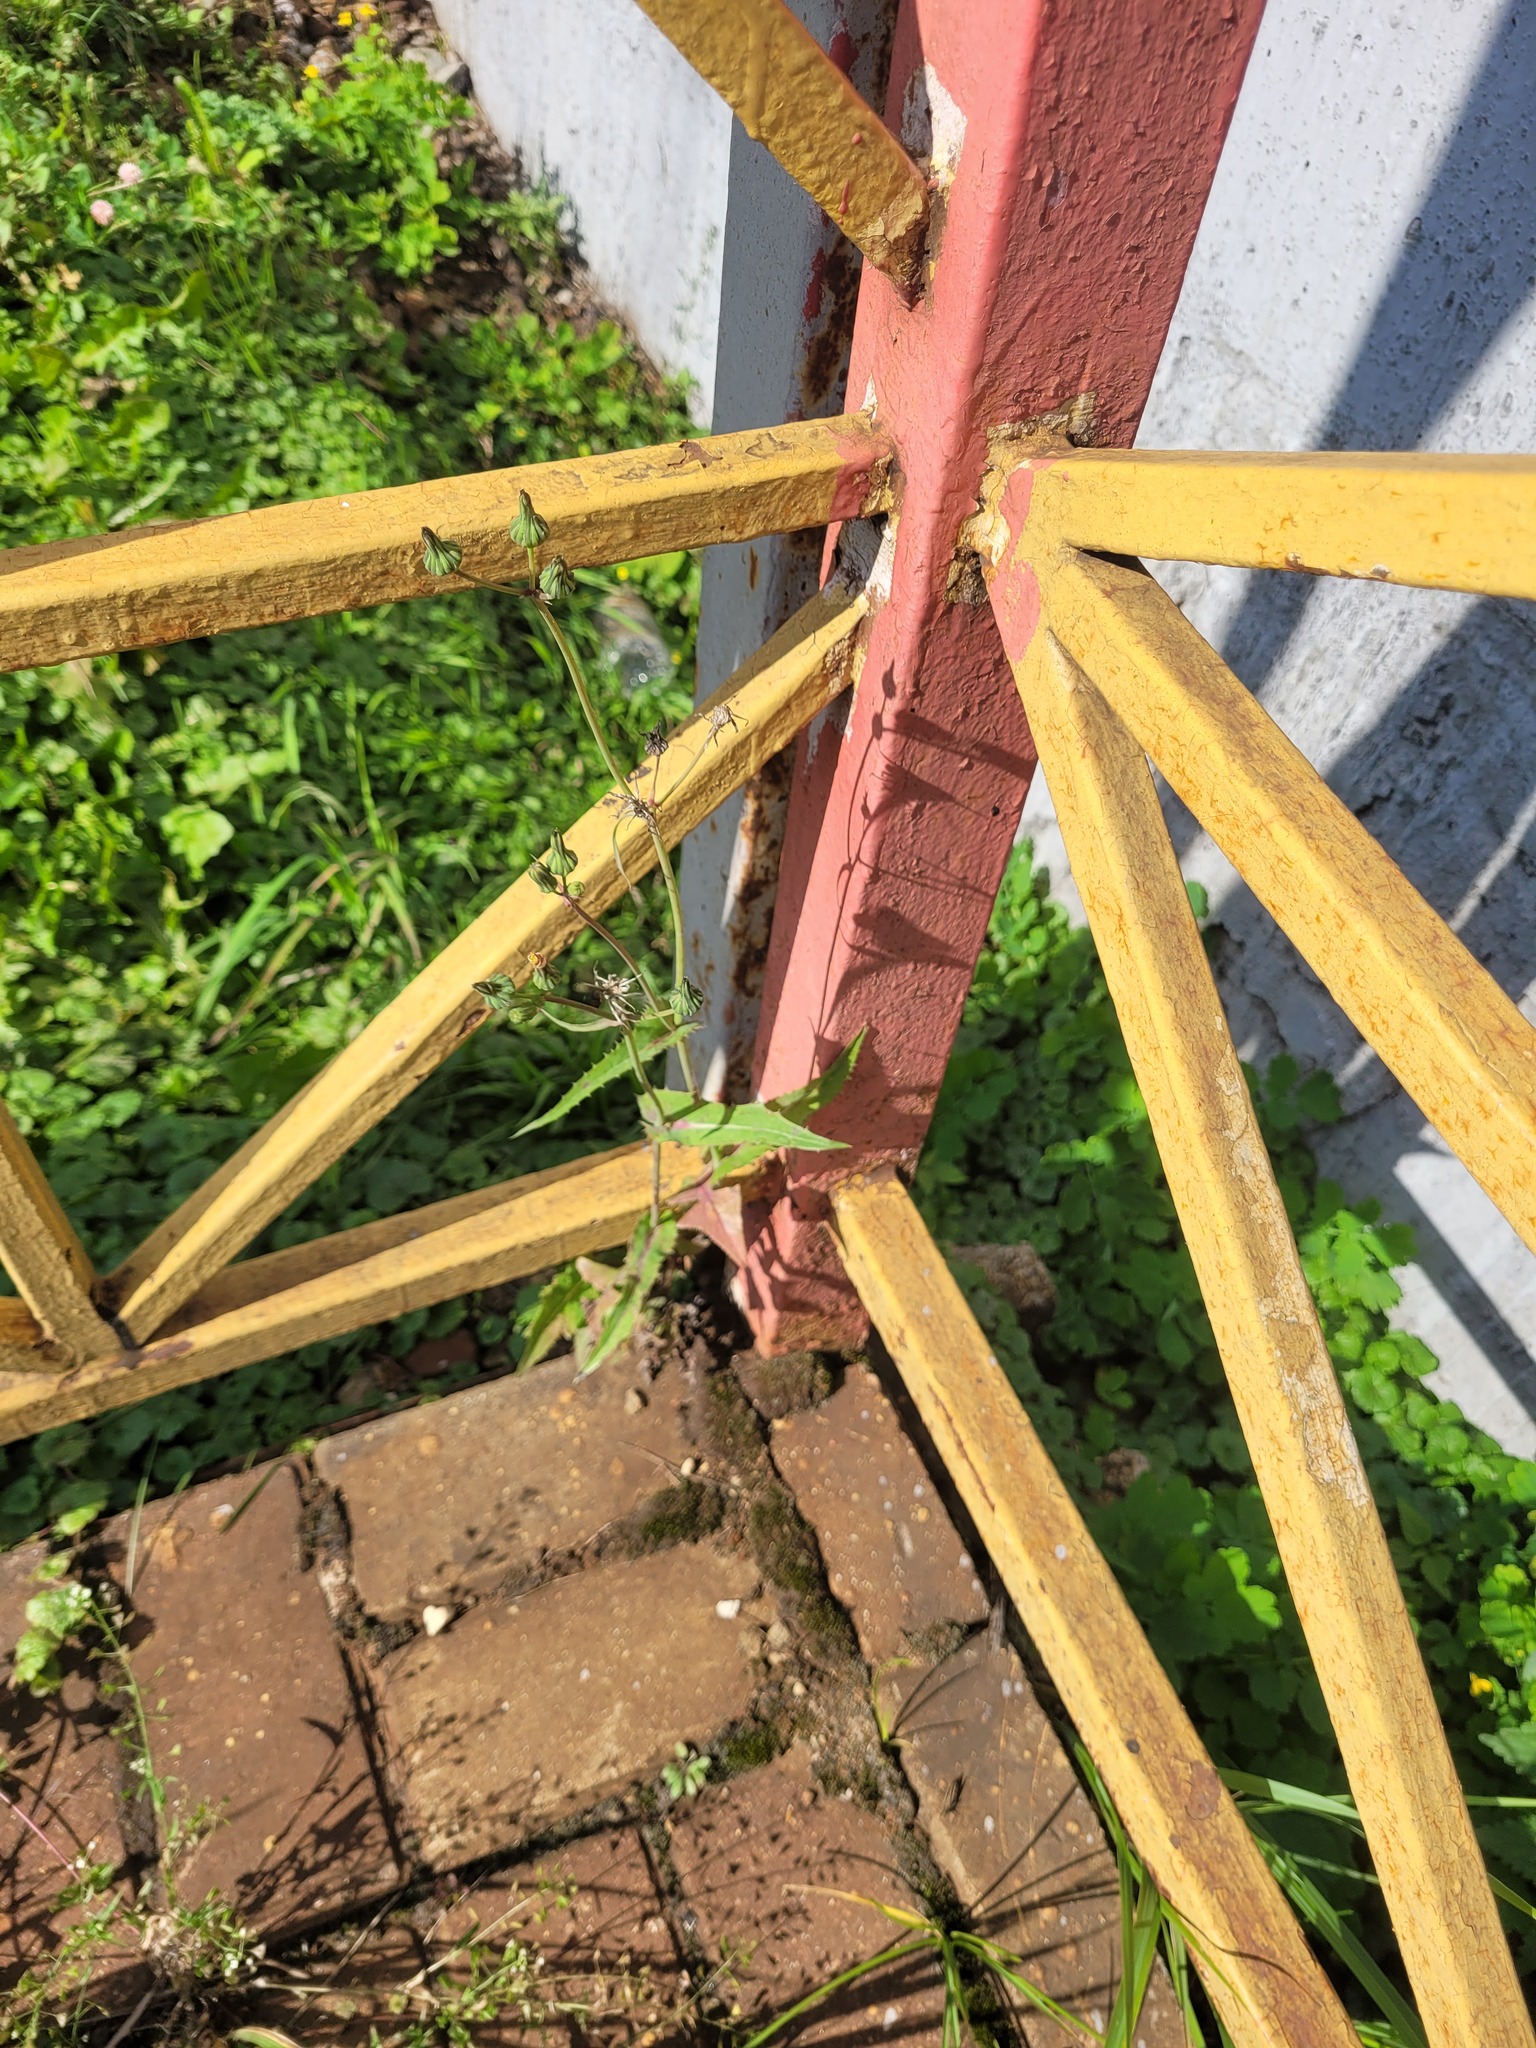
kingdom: Plantae
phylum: Tracheophyta
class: Magnoliopsida
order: Asterales
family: Asteraceae
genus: Sonchus
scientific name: Sonchus oleraceus
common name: Common sowthistle
